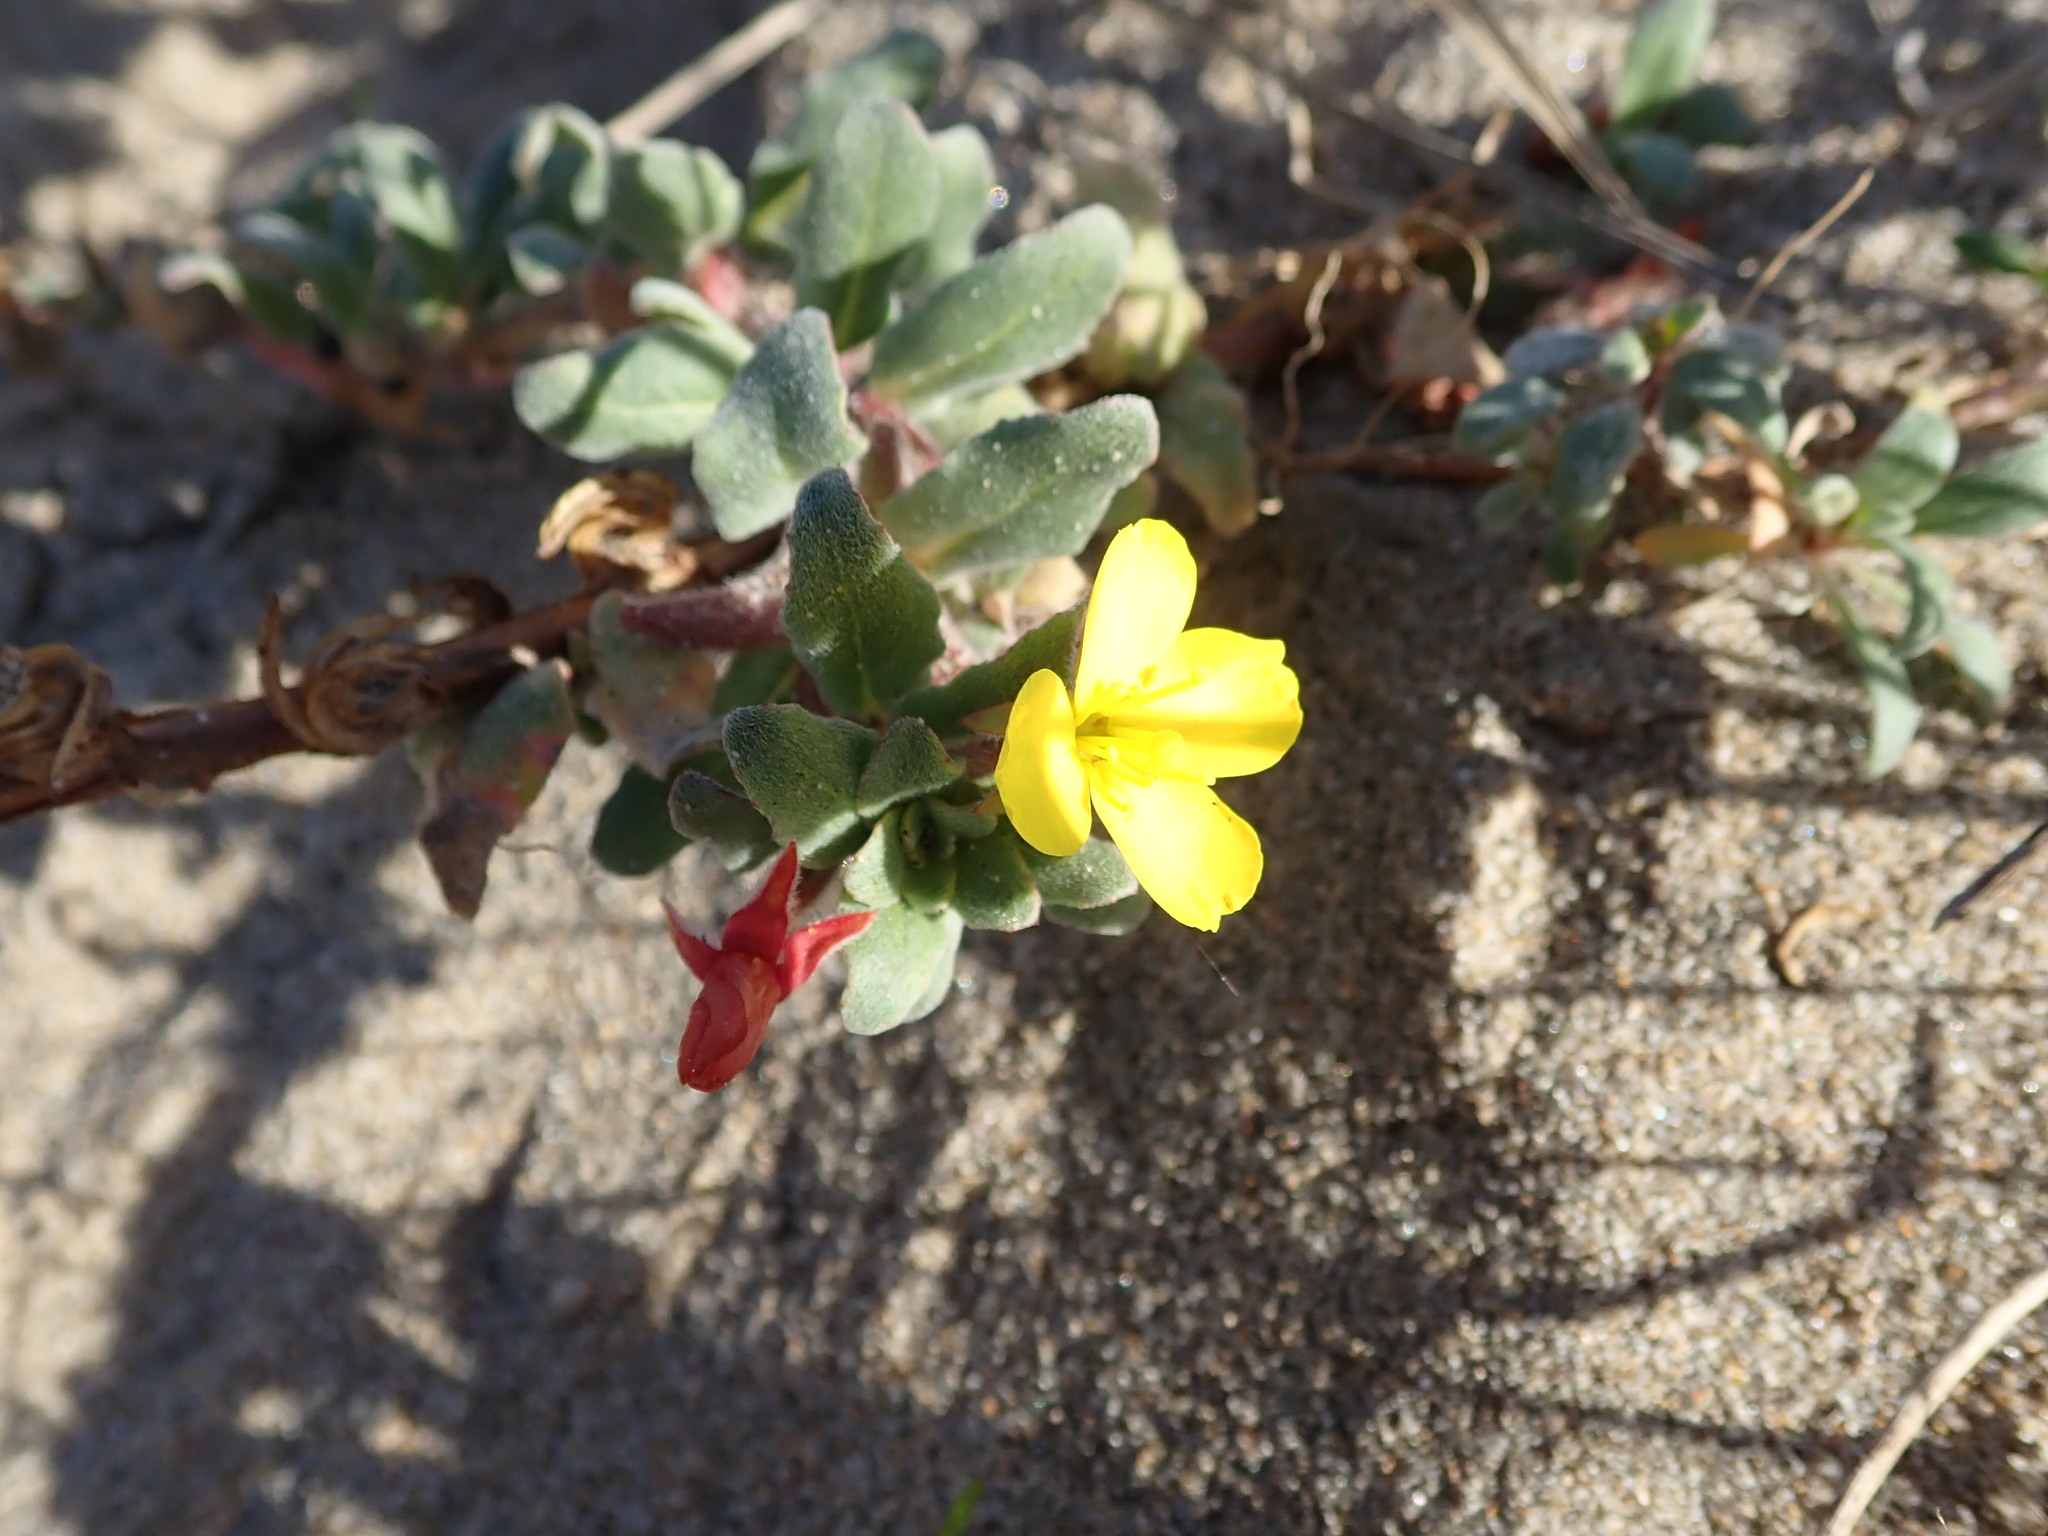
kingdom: Plantae
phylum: Tracheophyta
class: Magnoliopsida
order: Myrtales
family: Onagraceae
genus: Camissoniopsis
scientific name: Camissoniopsis cheiranthifolia
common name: Beach suncup
